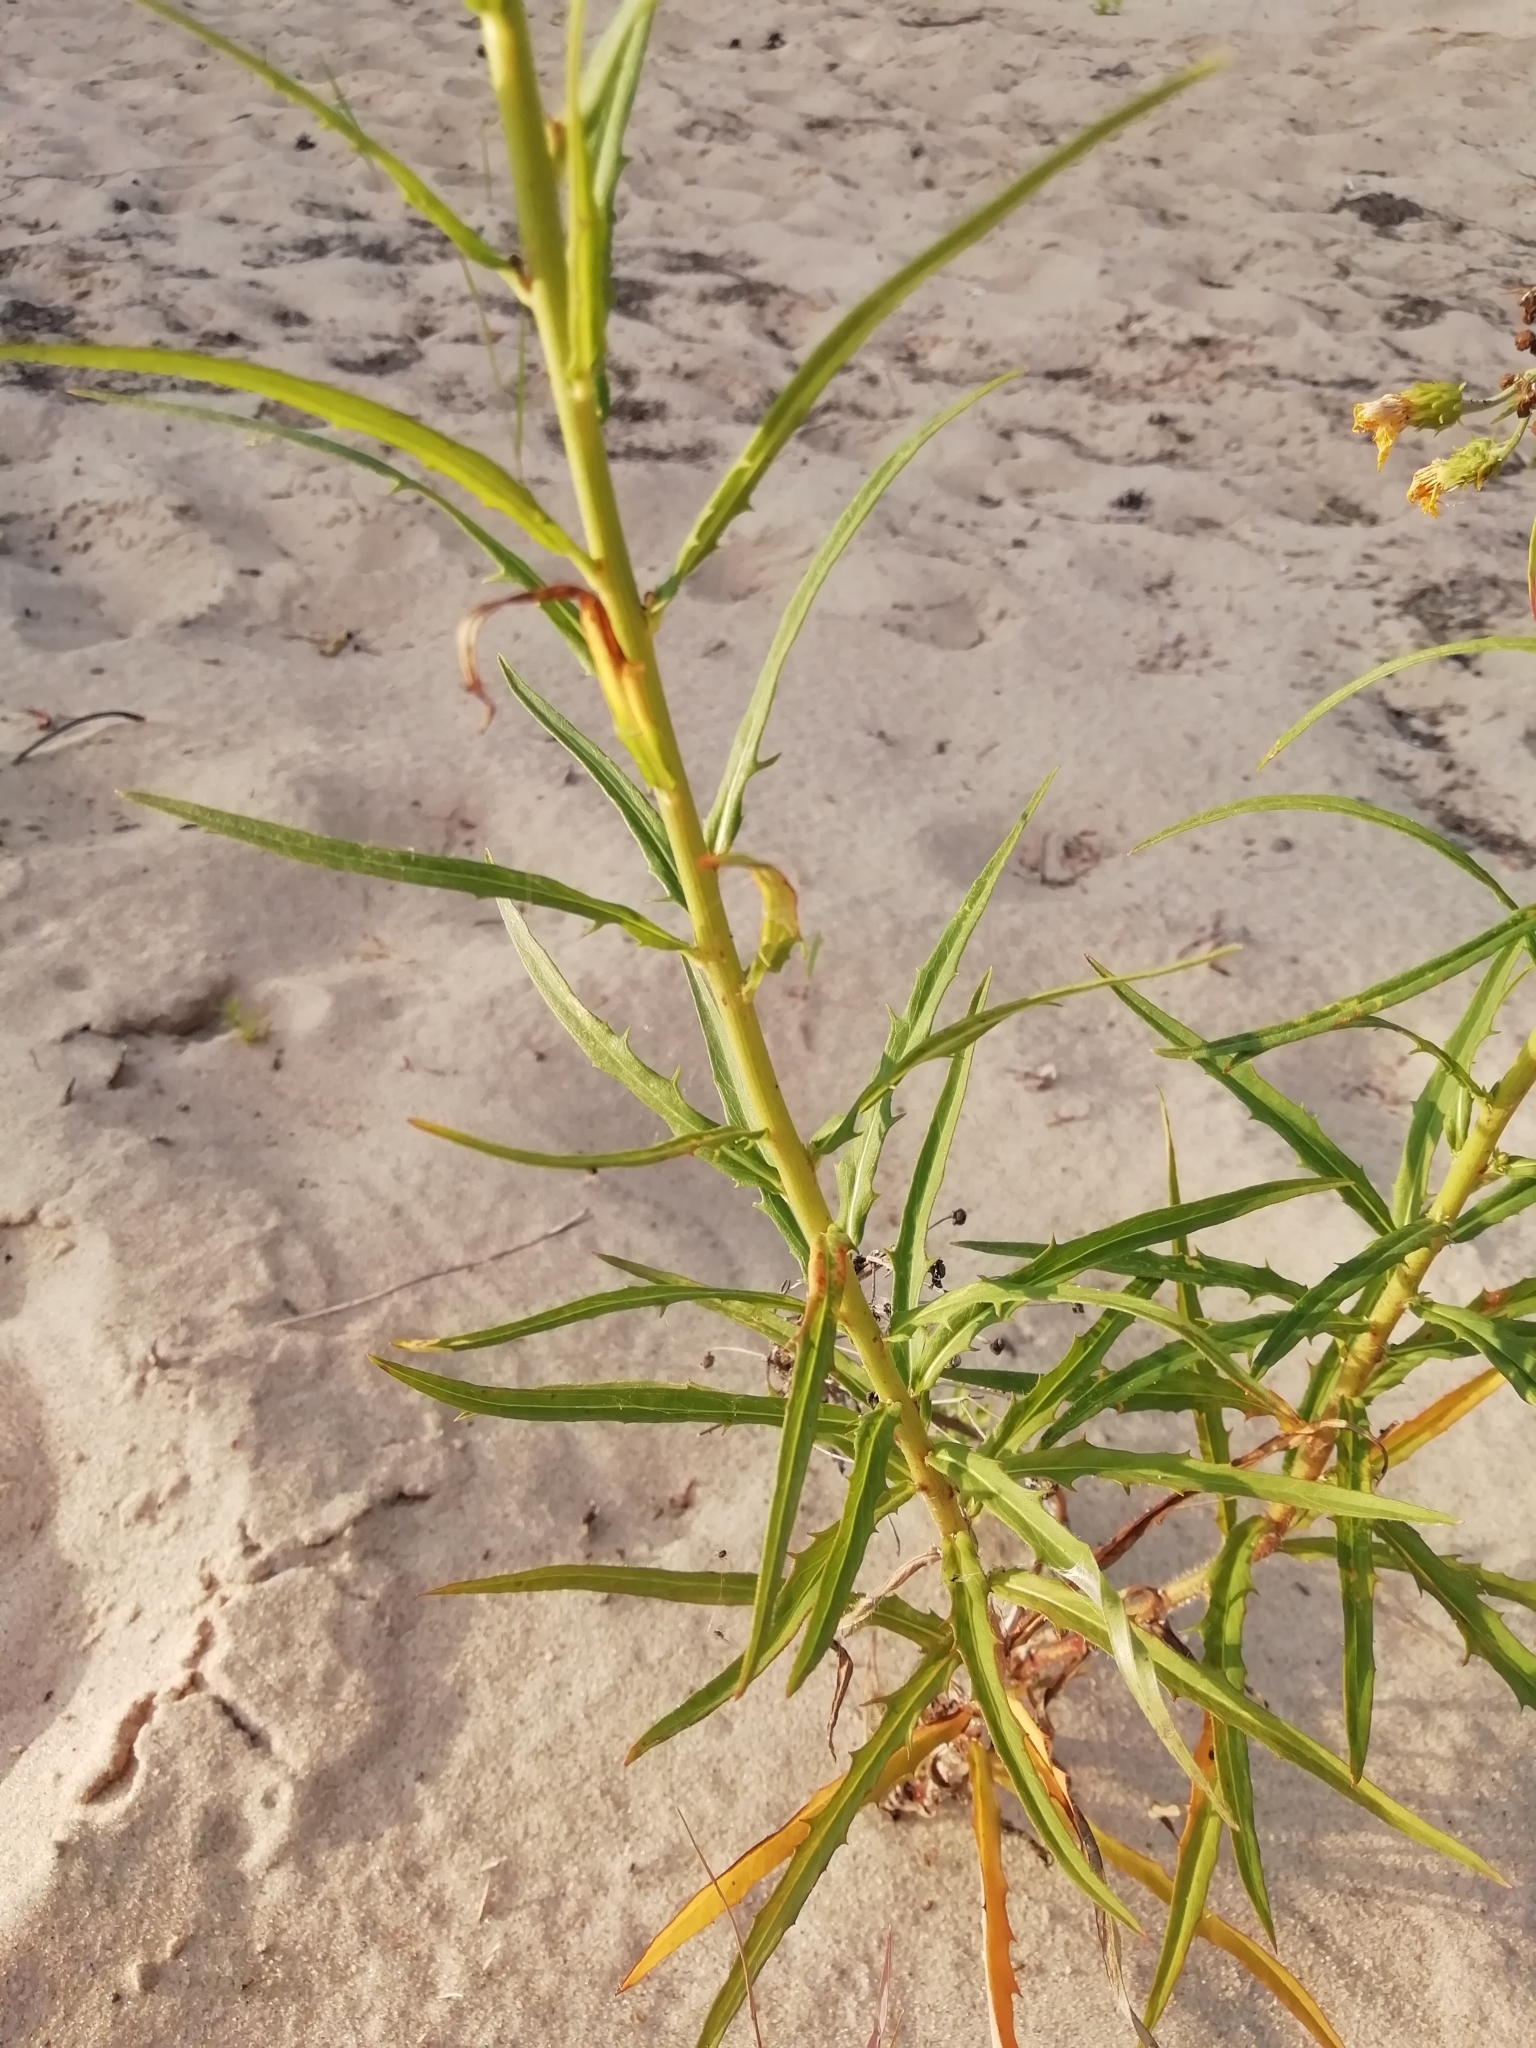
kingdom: Plantae
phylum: Tracheophyta
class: Magnoliopsida
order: Asterales
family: Asteraceae
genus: Hieracium
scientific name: Hieracium umbellatum
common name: Northern hawkweed
